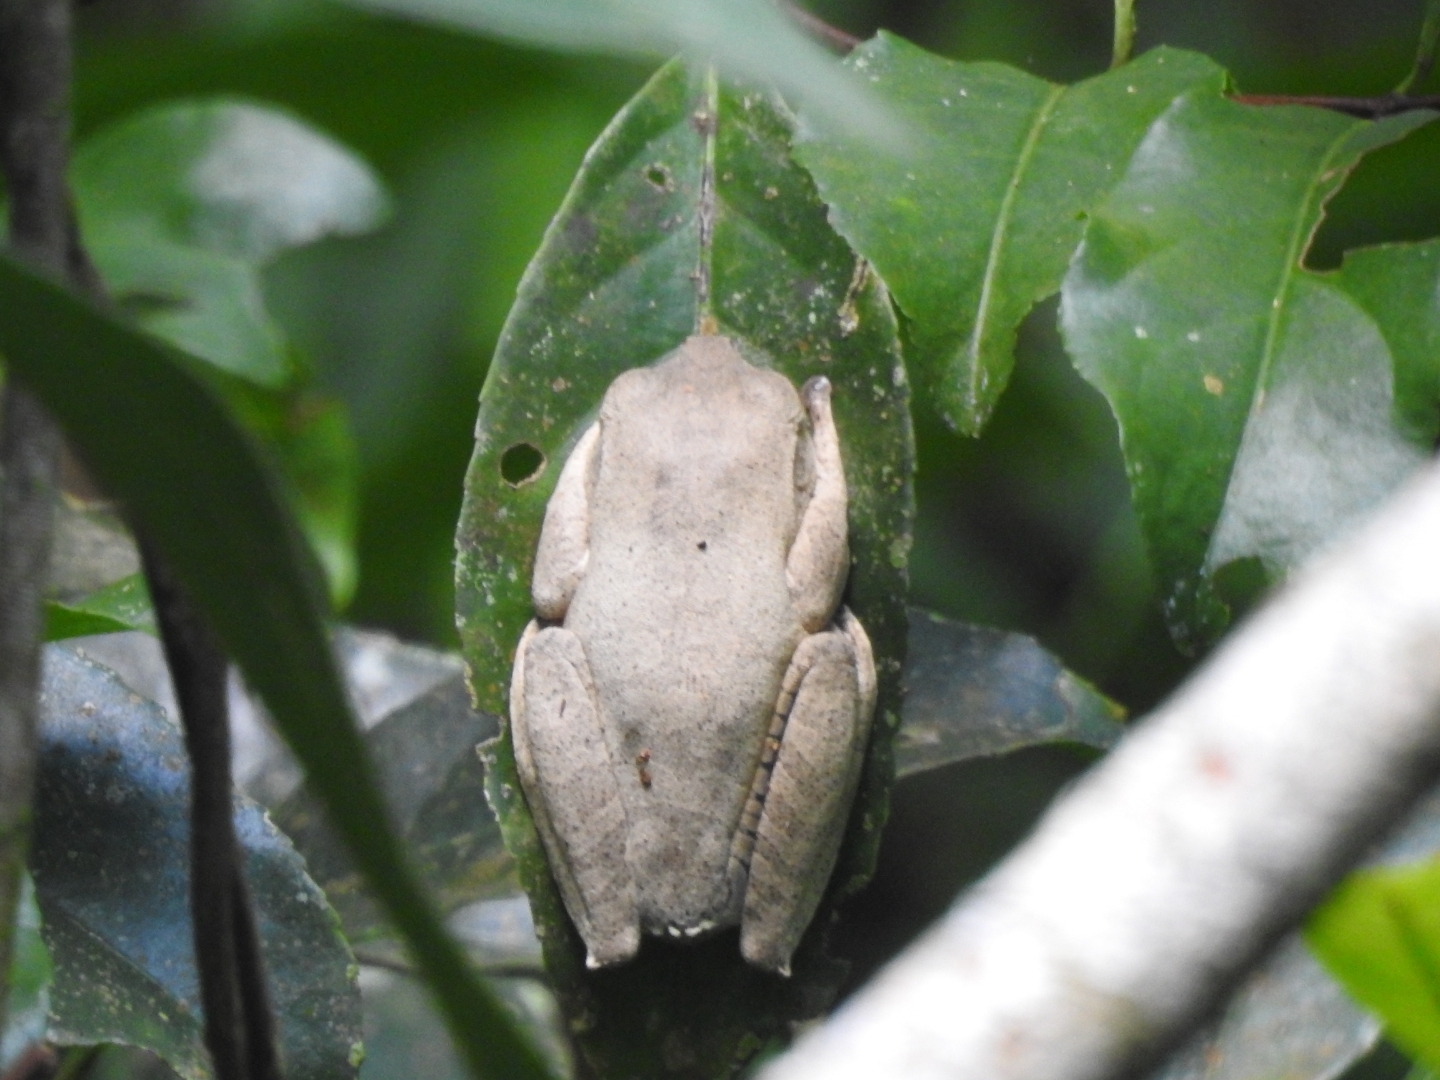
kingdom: Animalia
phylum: Chordata
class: Amphibia
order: Anura
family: Hylidae
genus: Boana
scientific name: Boana faber
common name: Blacksmith tree frog
